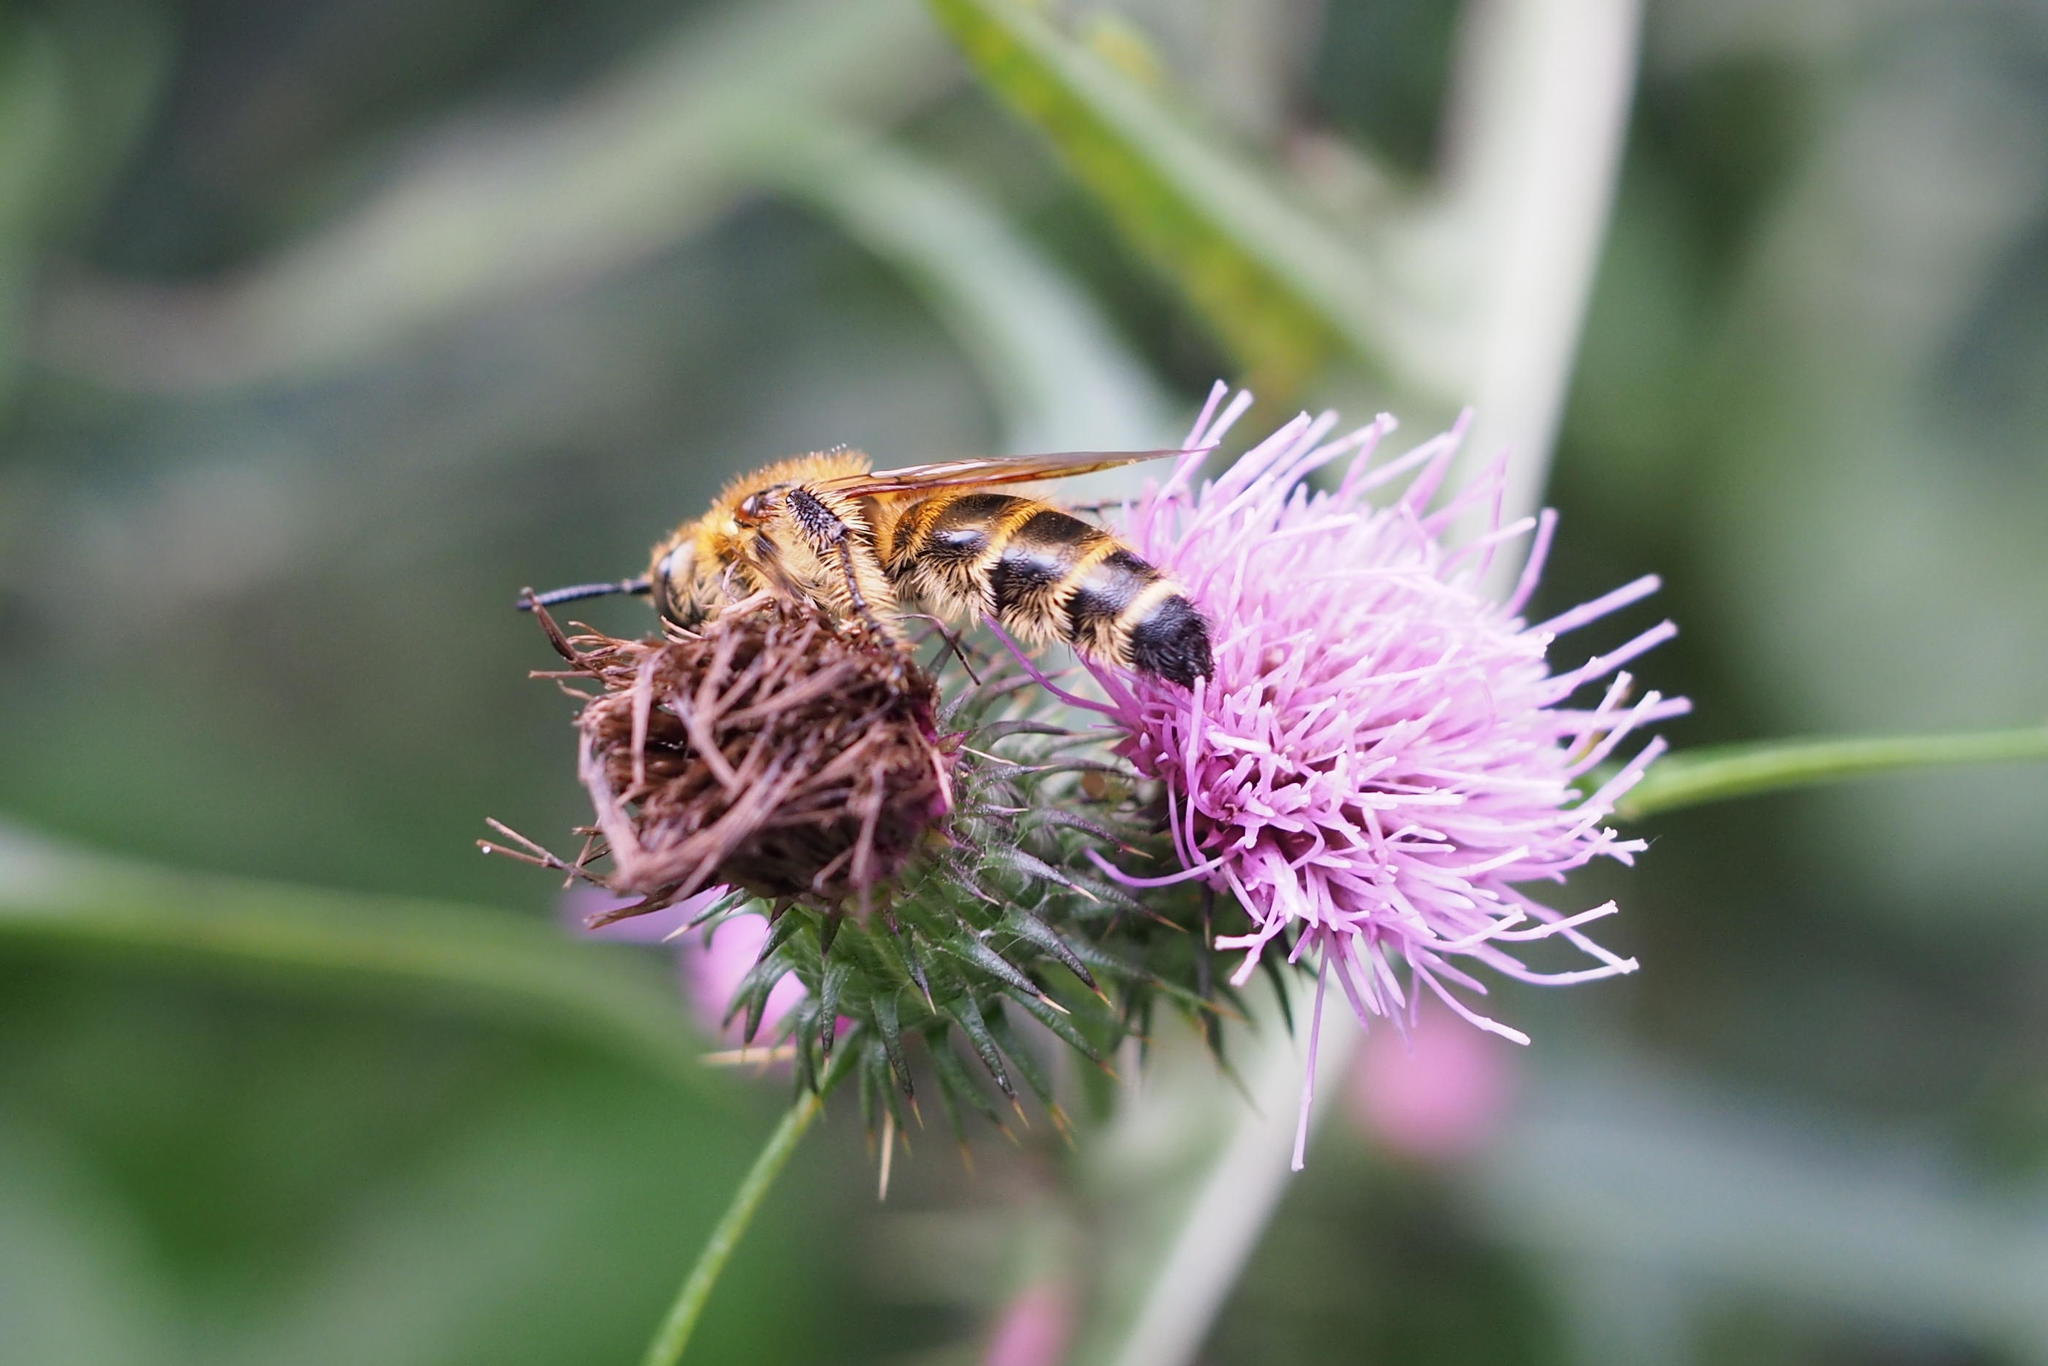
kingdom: Animalia
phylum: Arthropoda
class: Insecta
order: Hymenoptera
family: Scoliidae
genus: Campsomeris
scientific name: Campsomeris prismatica
